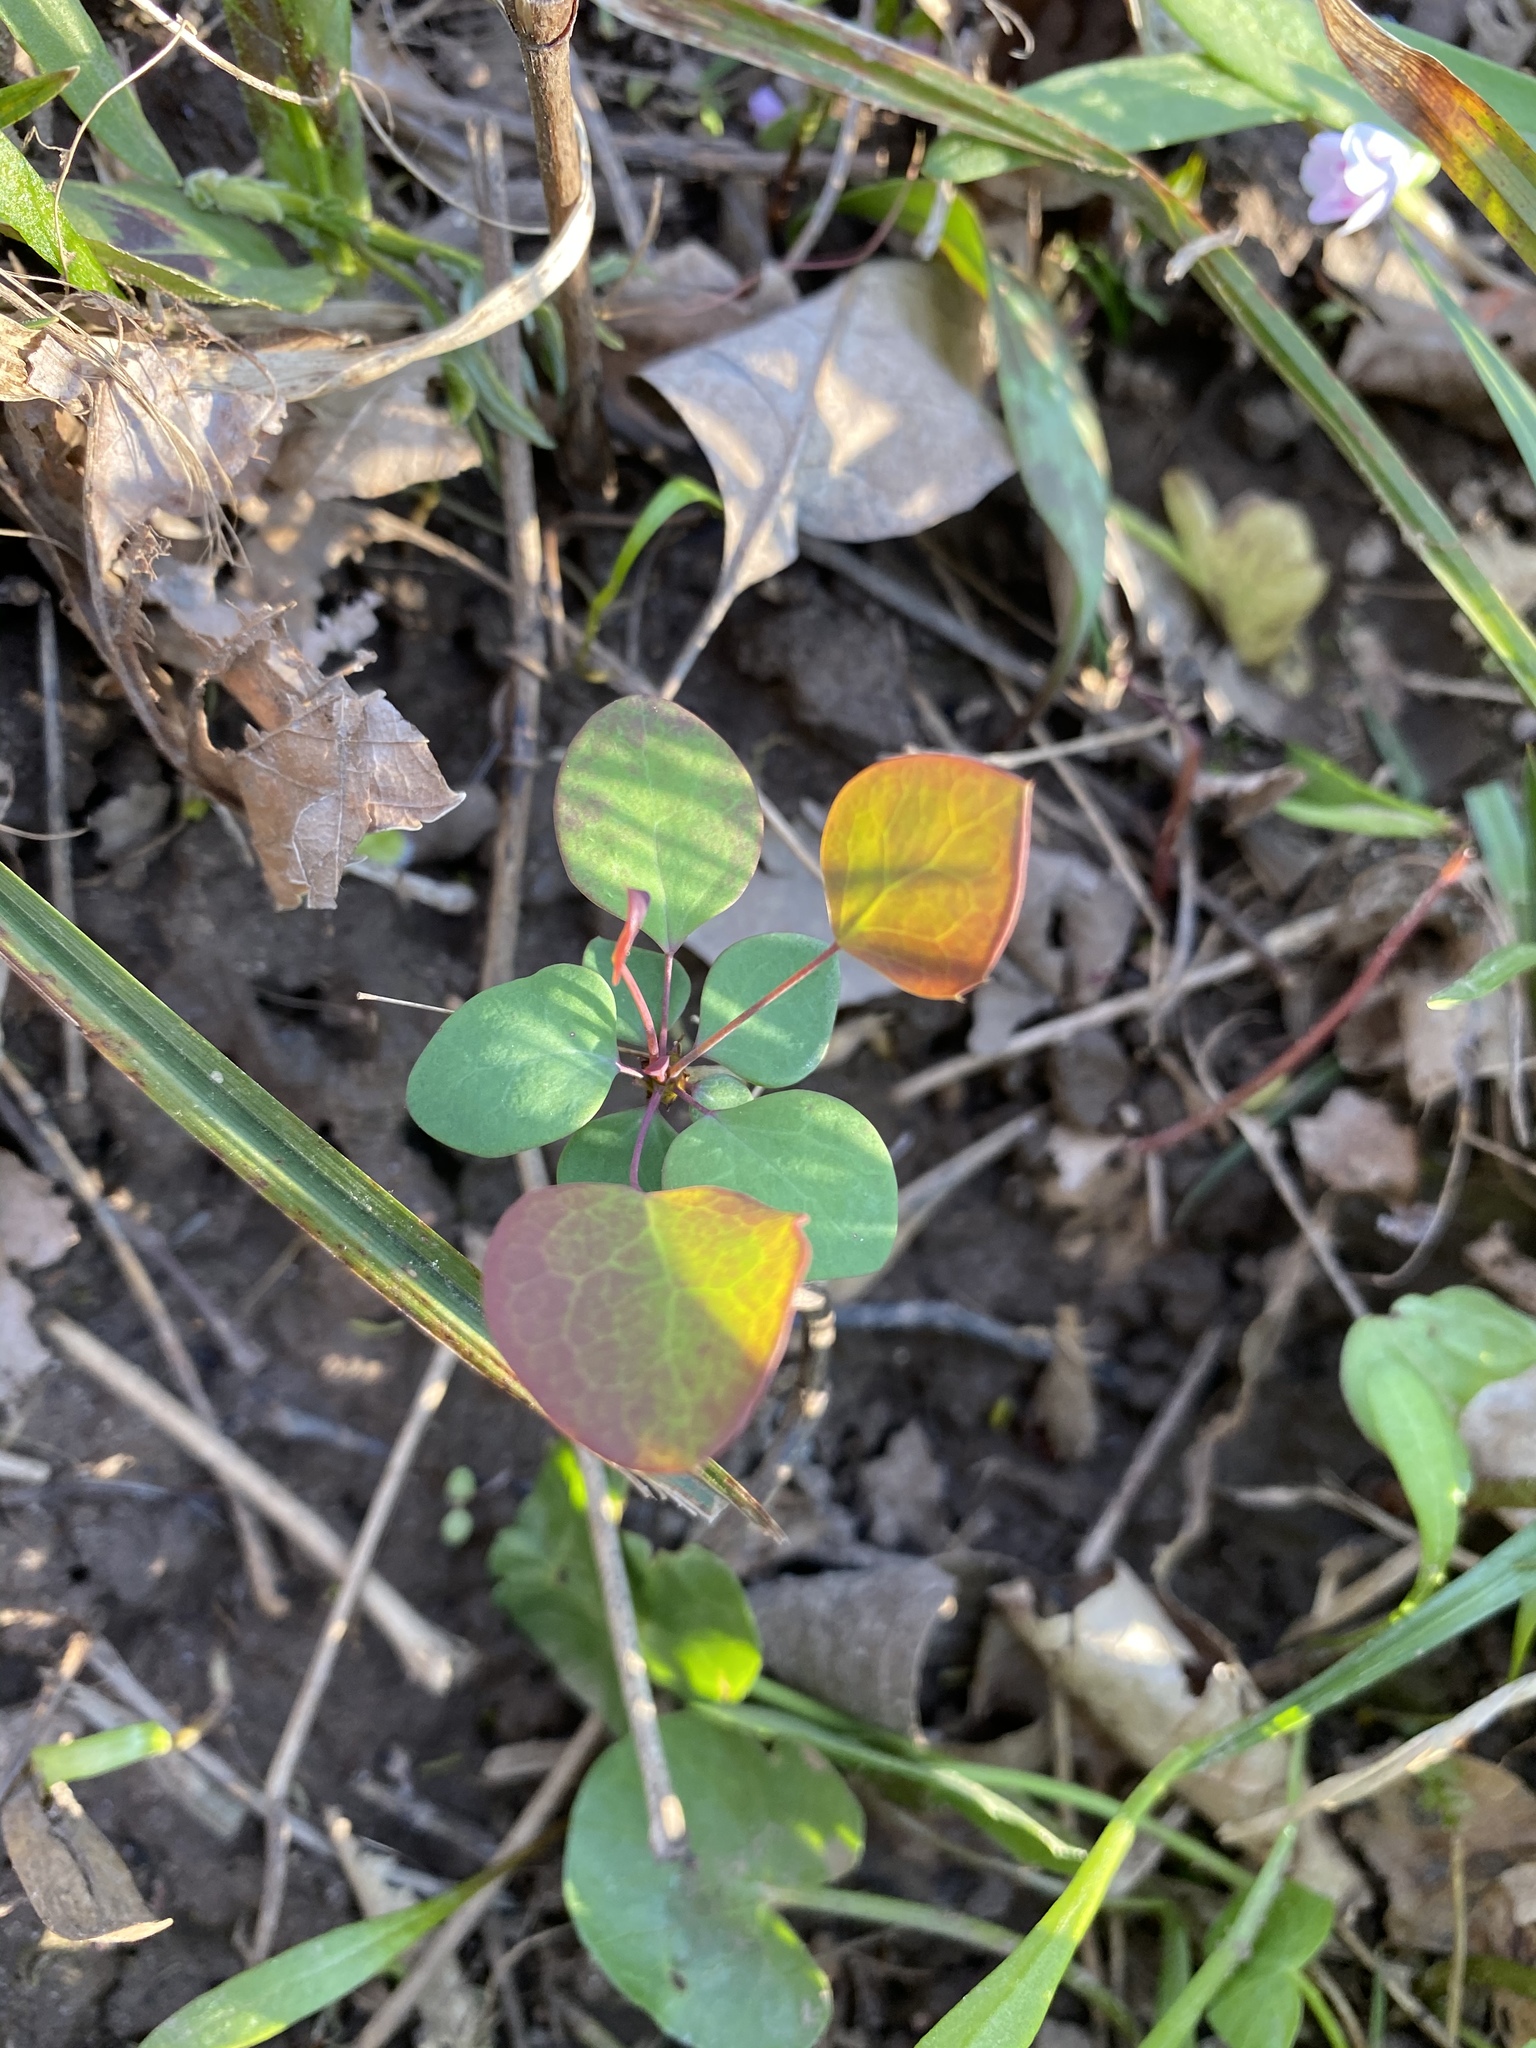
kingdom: Plantae
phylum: Tracheophyta
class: Magnoliopsida
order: Ranunculales
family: Berberidaceae
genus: Berberis
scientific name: Berberis thunbergii
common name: Japanese barberry
